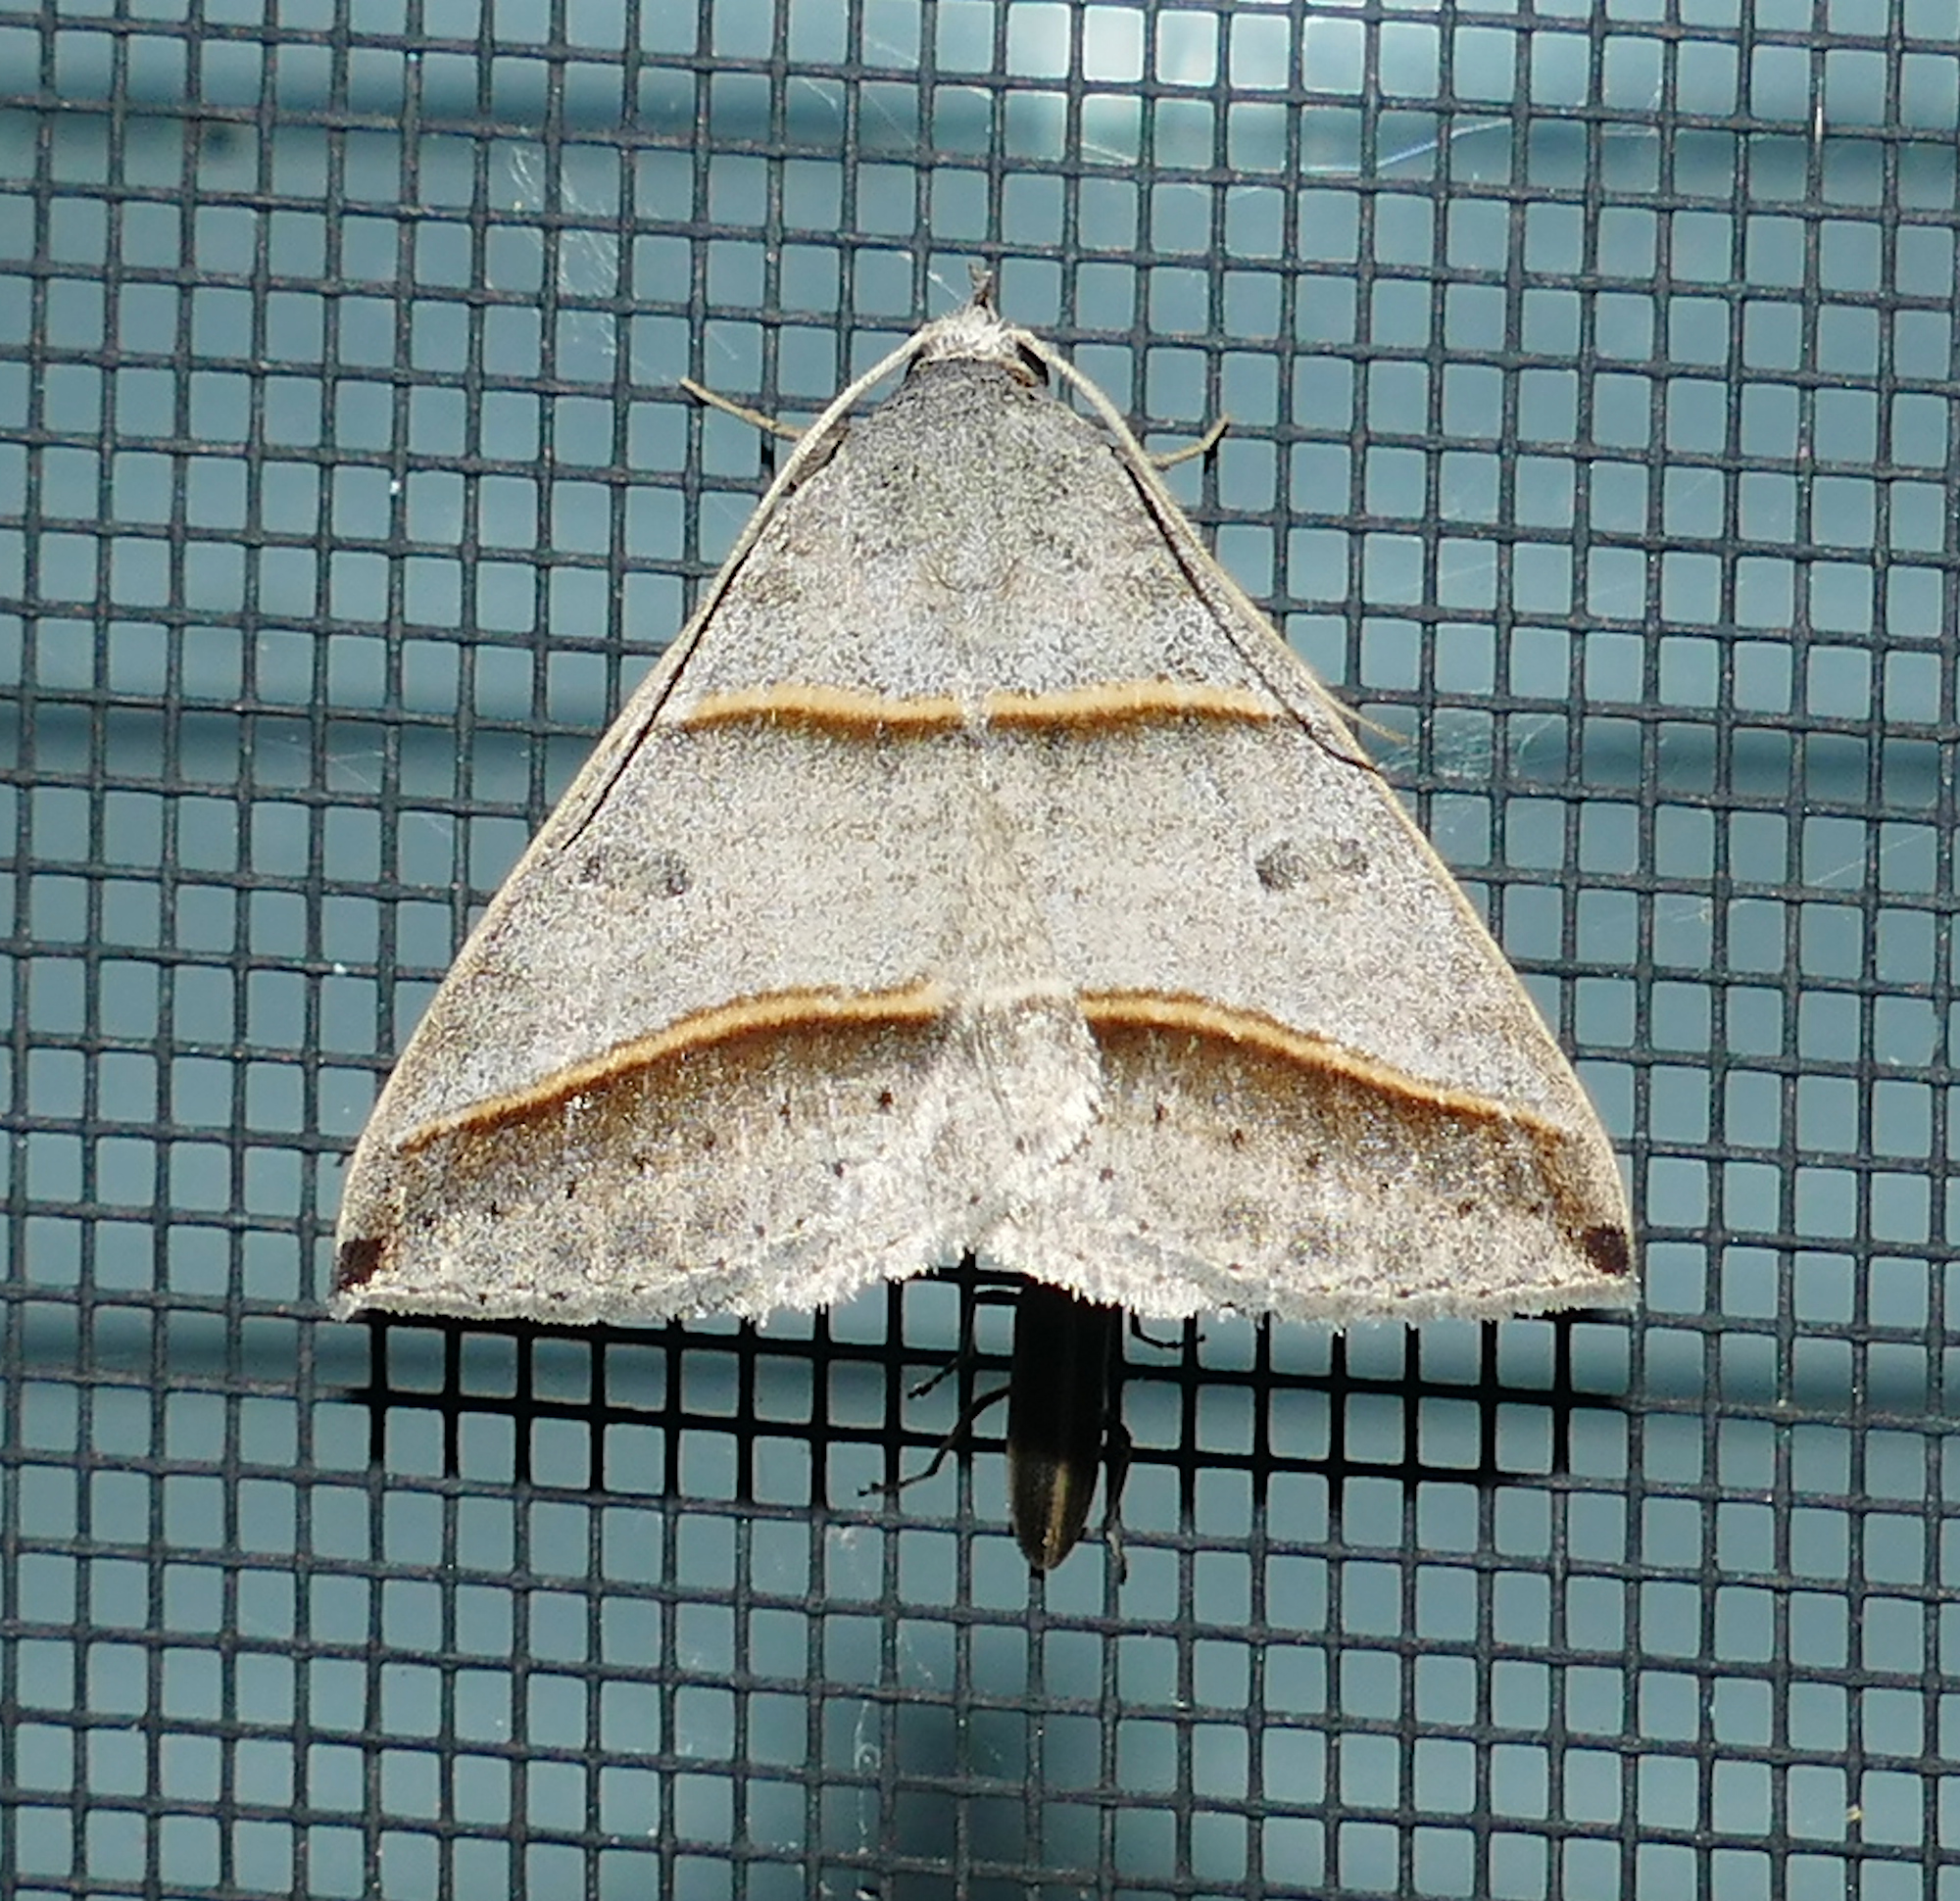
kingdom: Animalia
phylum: Arthropoda
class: Insecta
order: Lepidoptera
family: Erebidae
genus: Ptichodis
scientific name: Ptichodis vinculum
